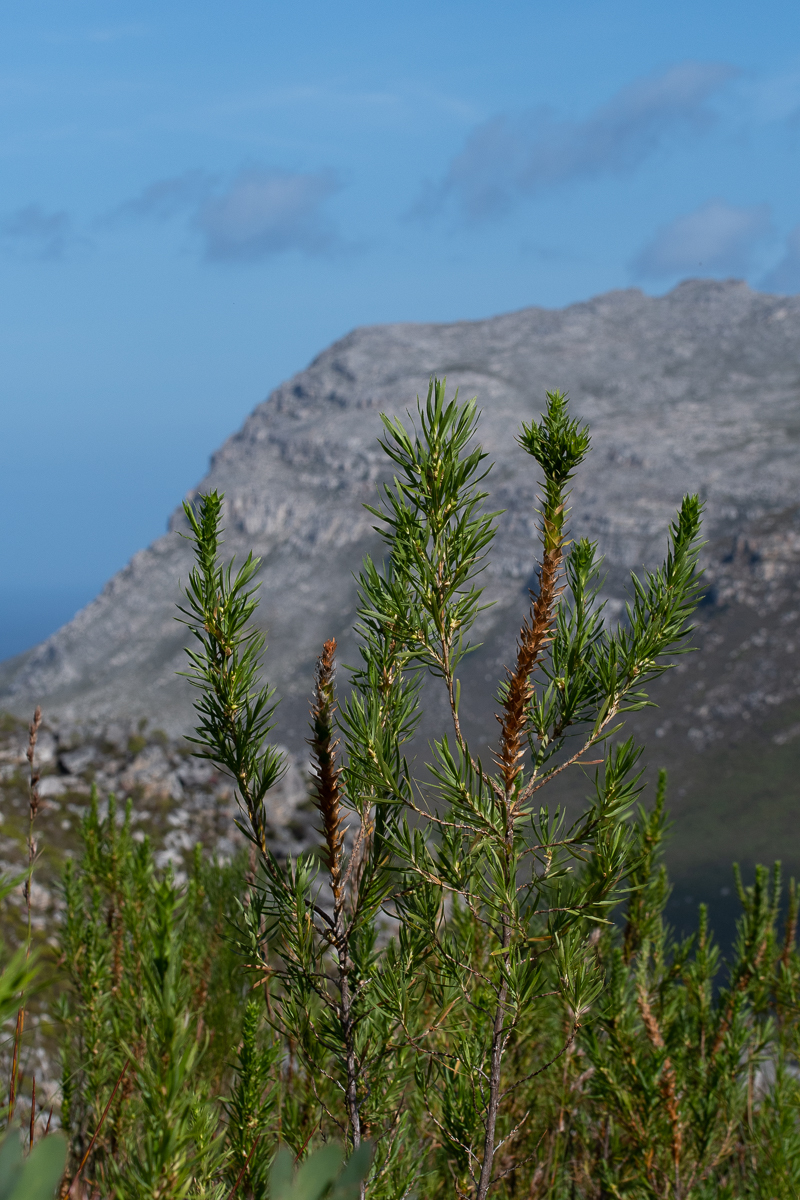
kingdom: Plantae
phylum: Tracheophyta
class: Magnoliopsida
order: Rosales
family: Rosaceae
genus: Cliffortia
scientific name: Cliffortia heterophylla
